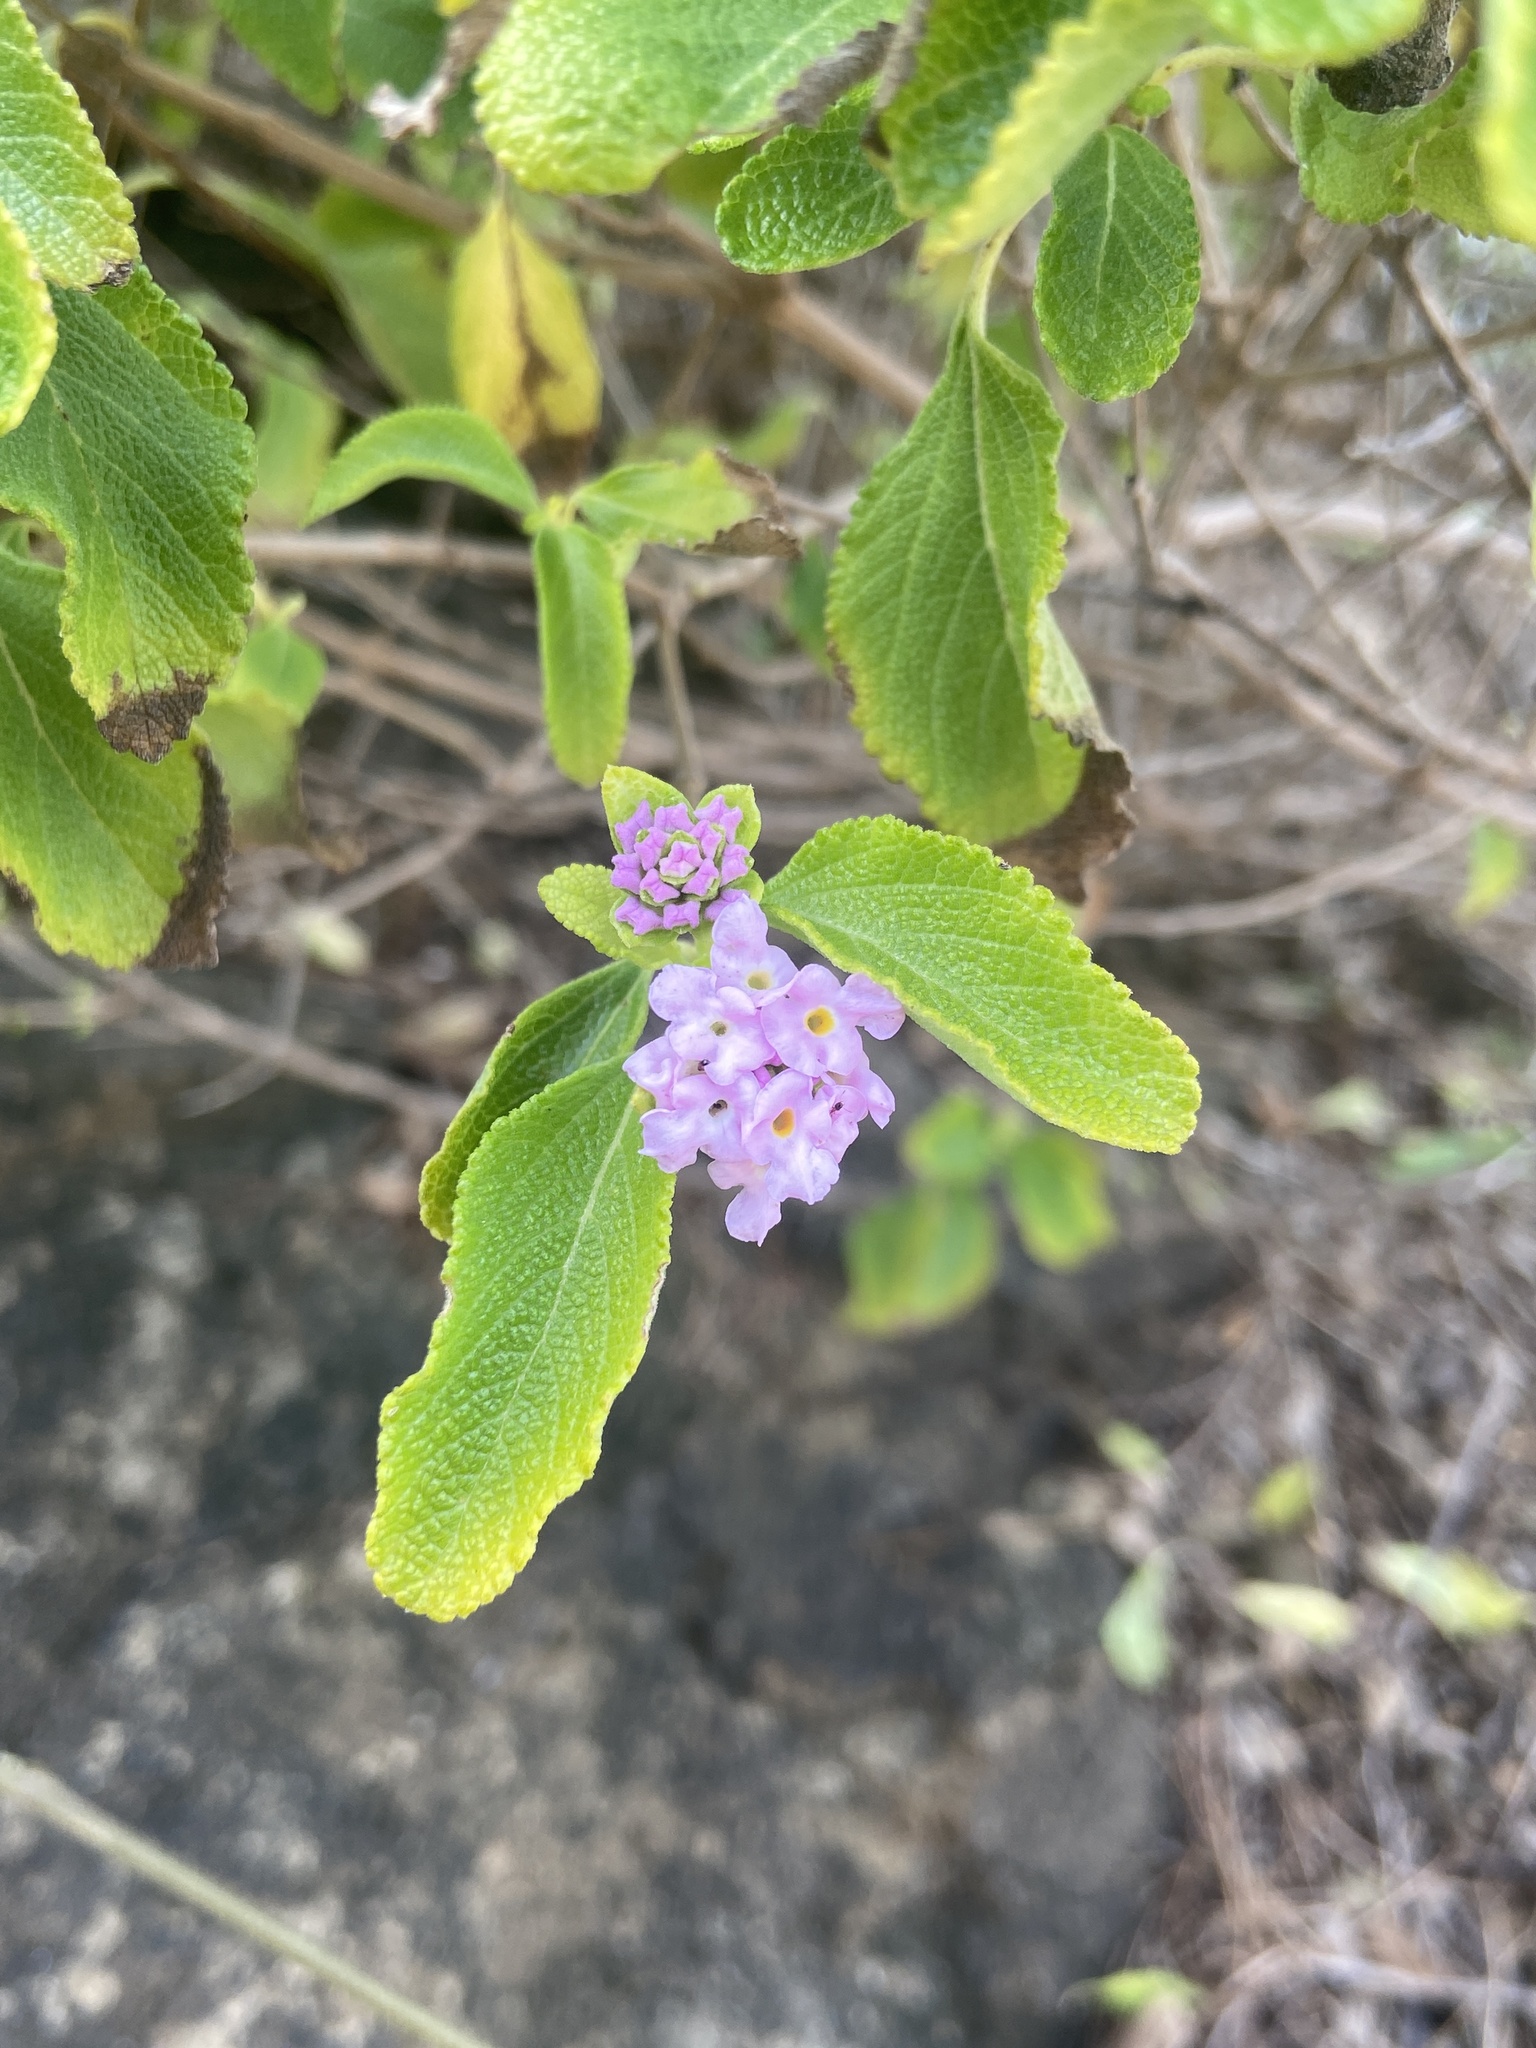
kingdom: Plantae
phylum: Tracheophyta
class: Magnoliopsida
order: Lamiales
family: Verbenaceae
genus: Lantana
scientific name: Lantana involucrata
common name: Black sage
